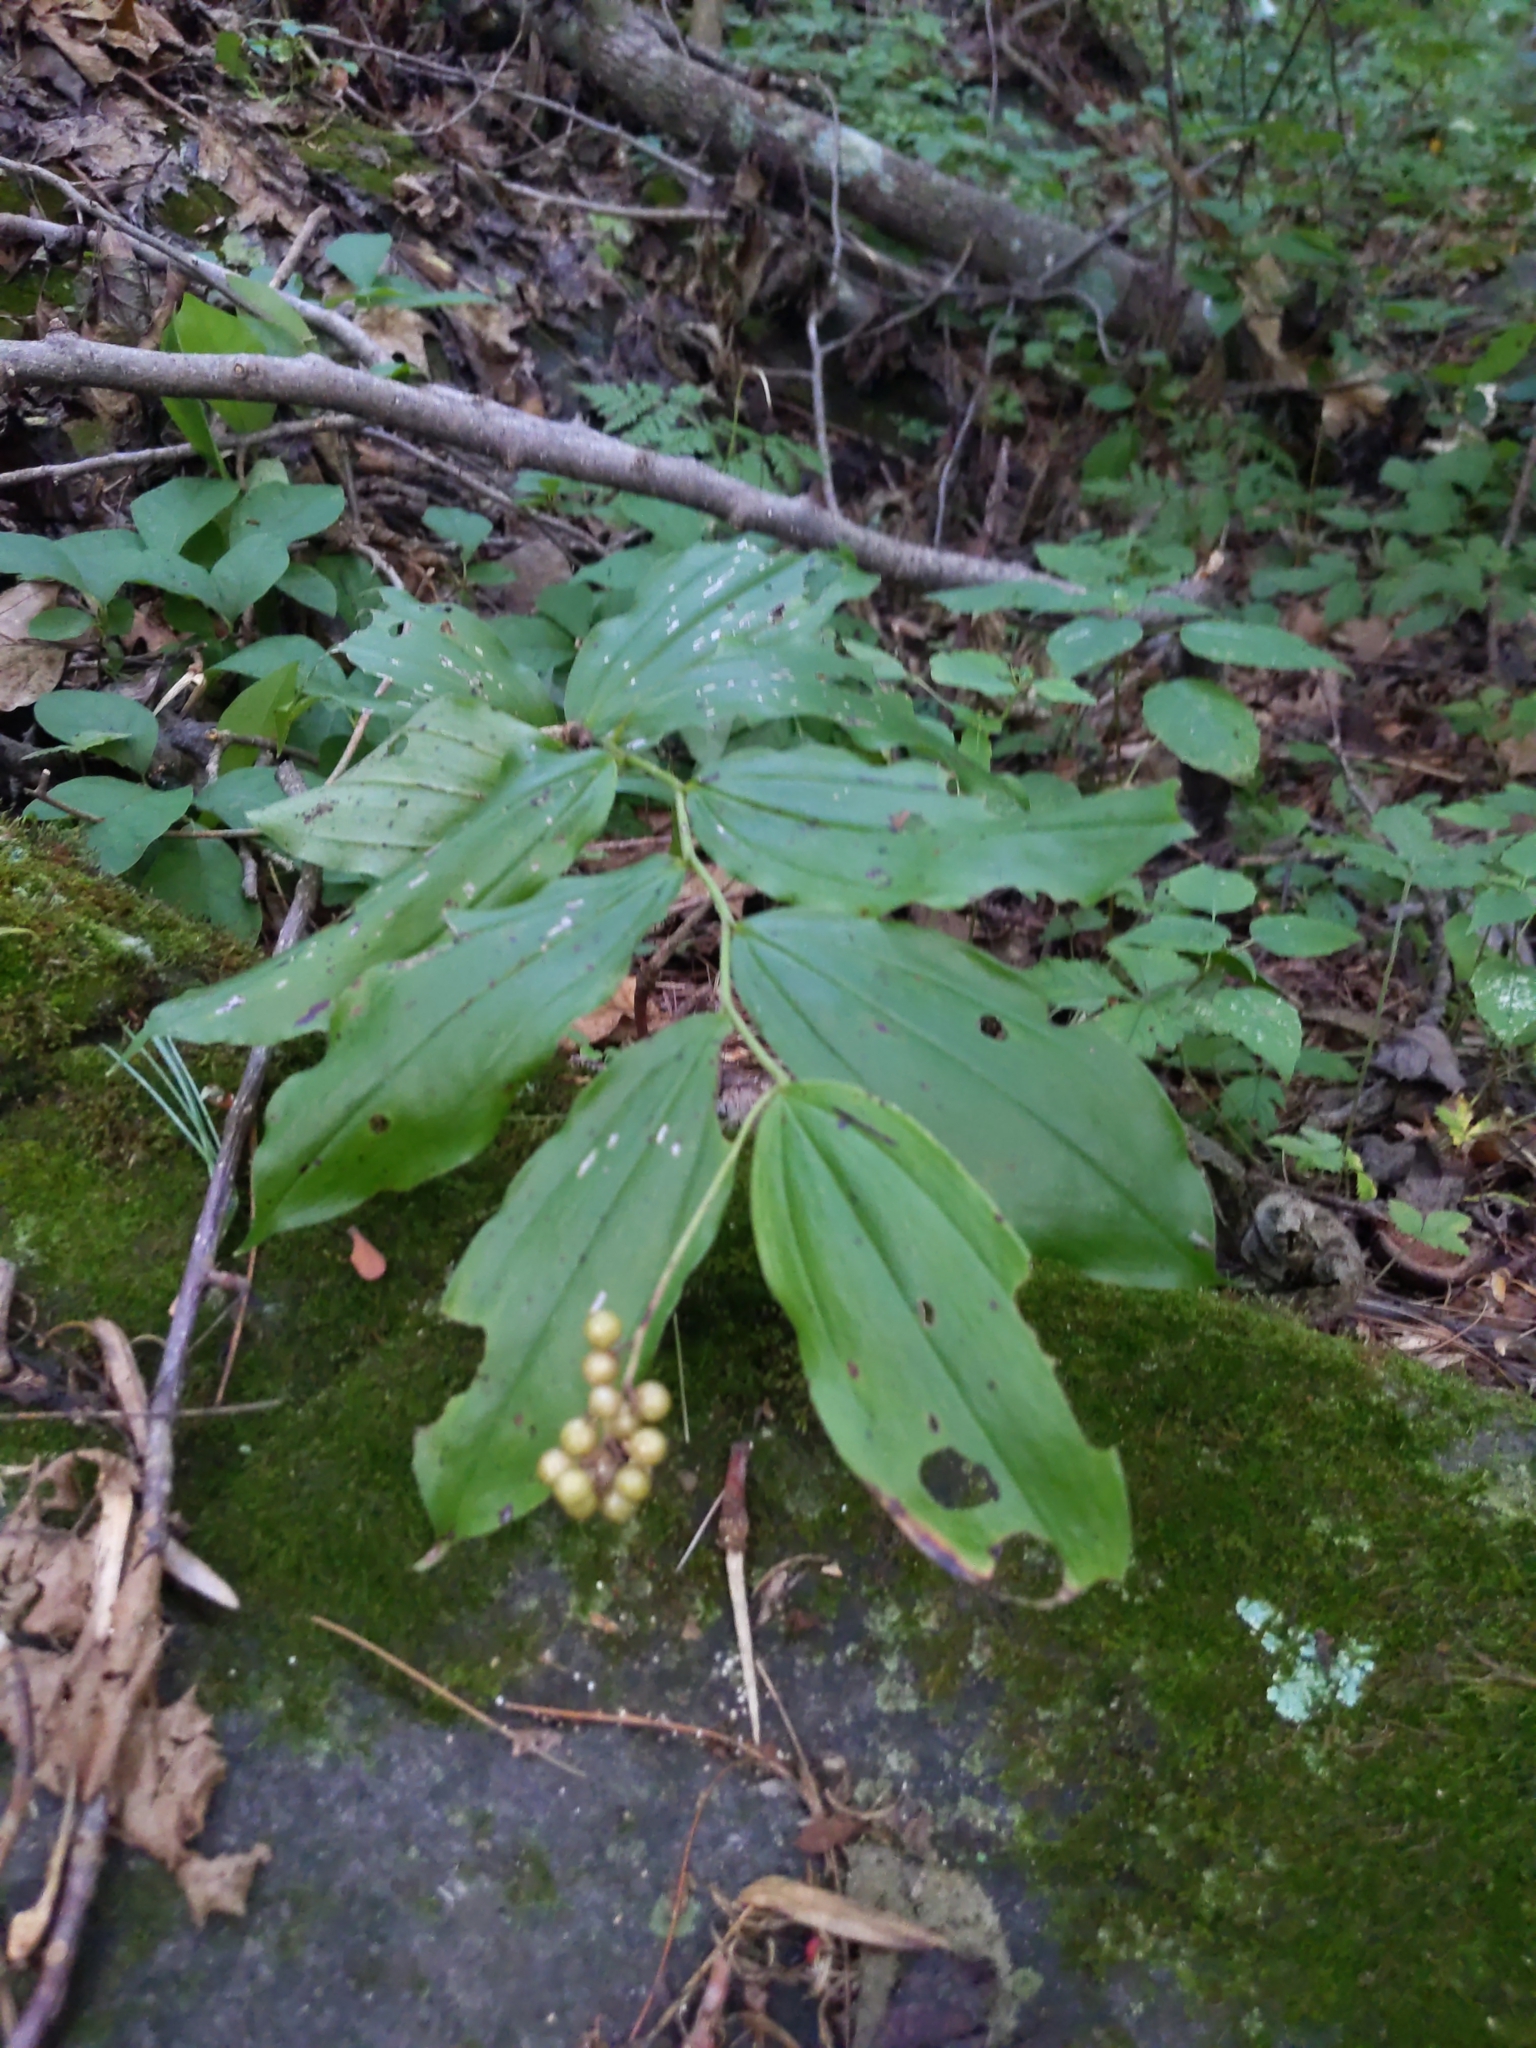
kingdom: Plantae
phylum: Tracheophyta
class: Liliopsida
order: Asparagales
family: Asparagaceae
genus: Maianthemum
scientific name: Maianthemum racemosum
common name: False spikenard
